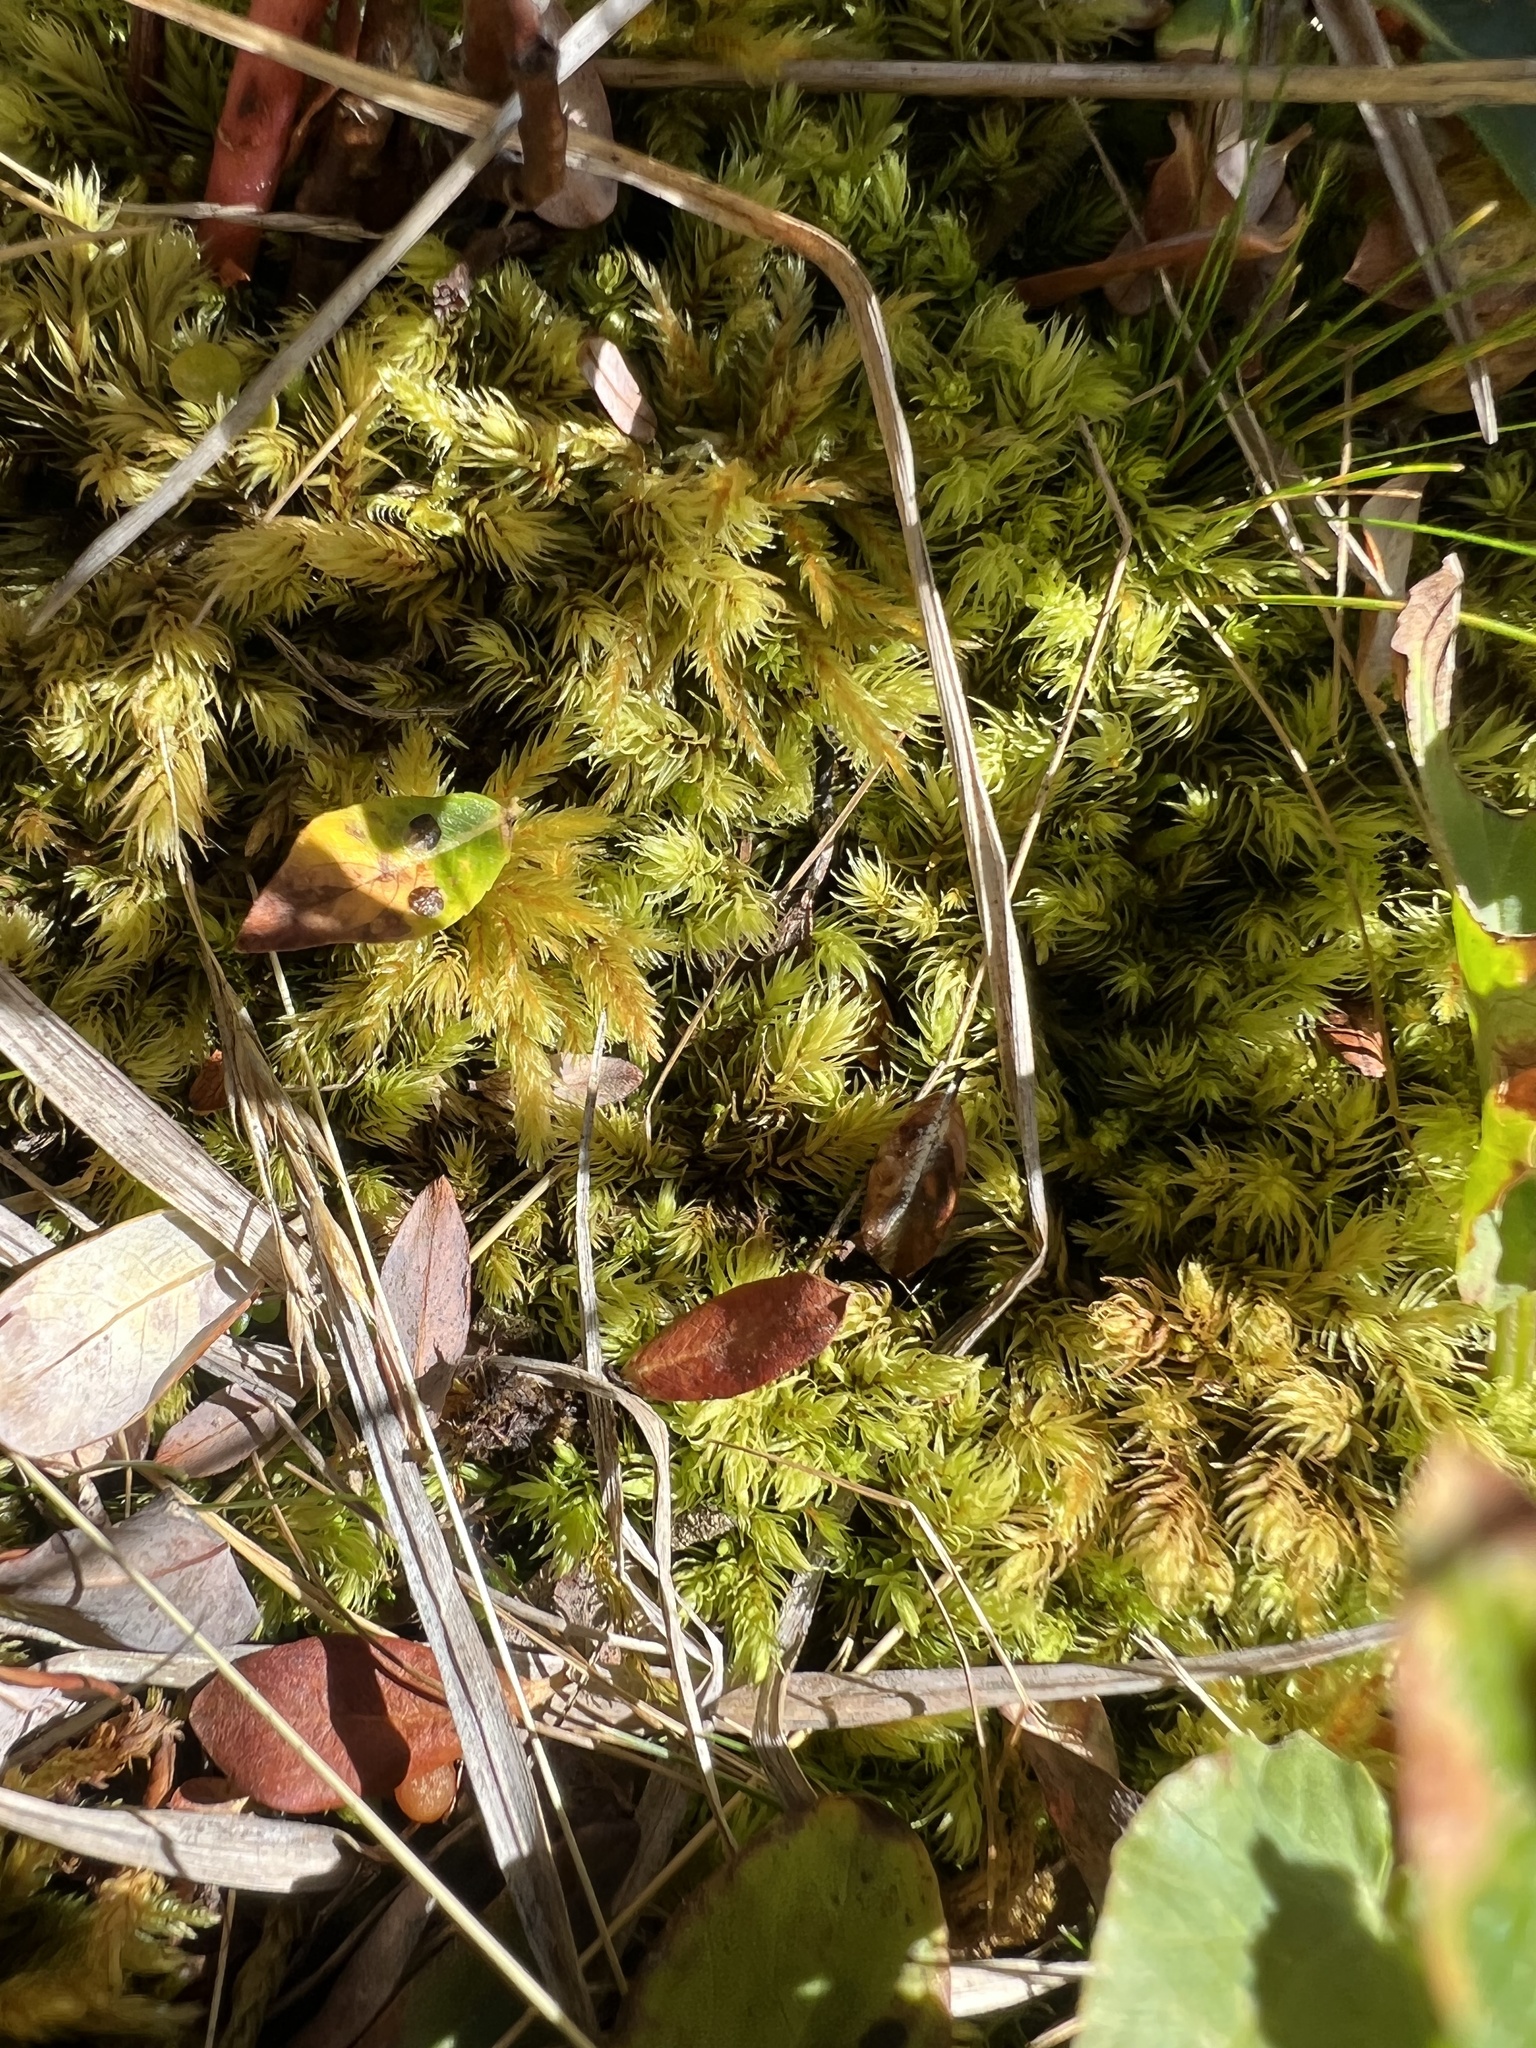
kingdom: Plantae
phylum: Bryophyta
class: Bryopsida
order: Aulacomniales
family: Aulacomniaceae
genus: Aulacomnium
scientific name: Aulacomnium palustre
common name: Bog groove-moss
